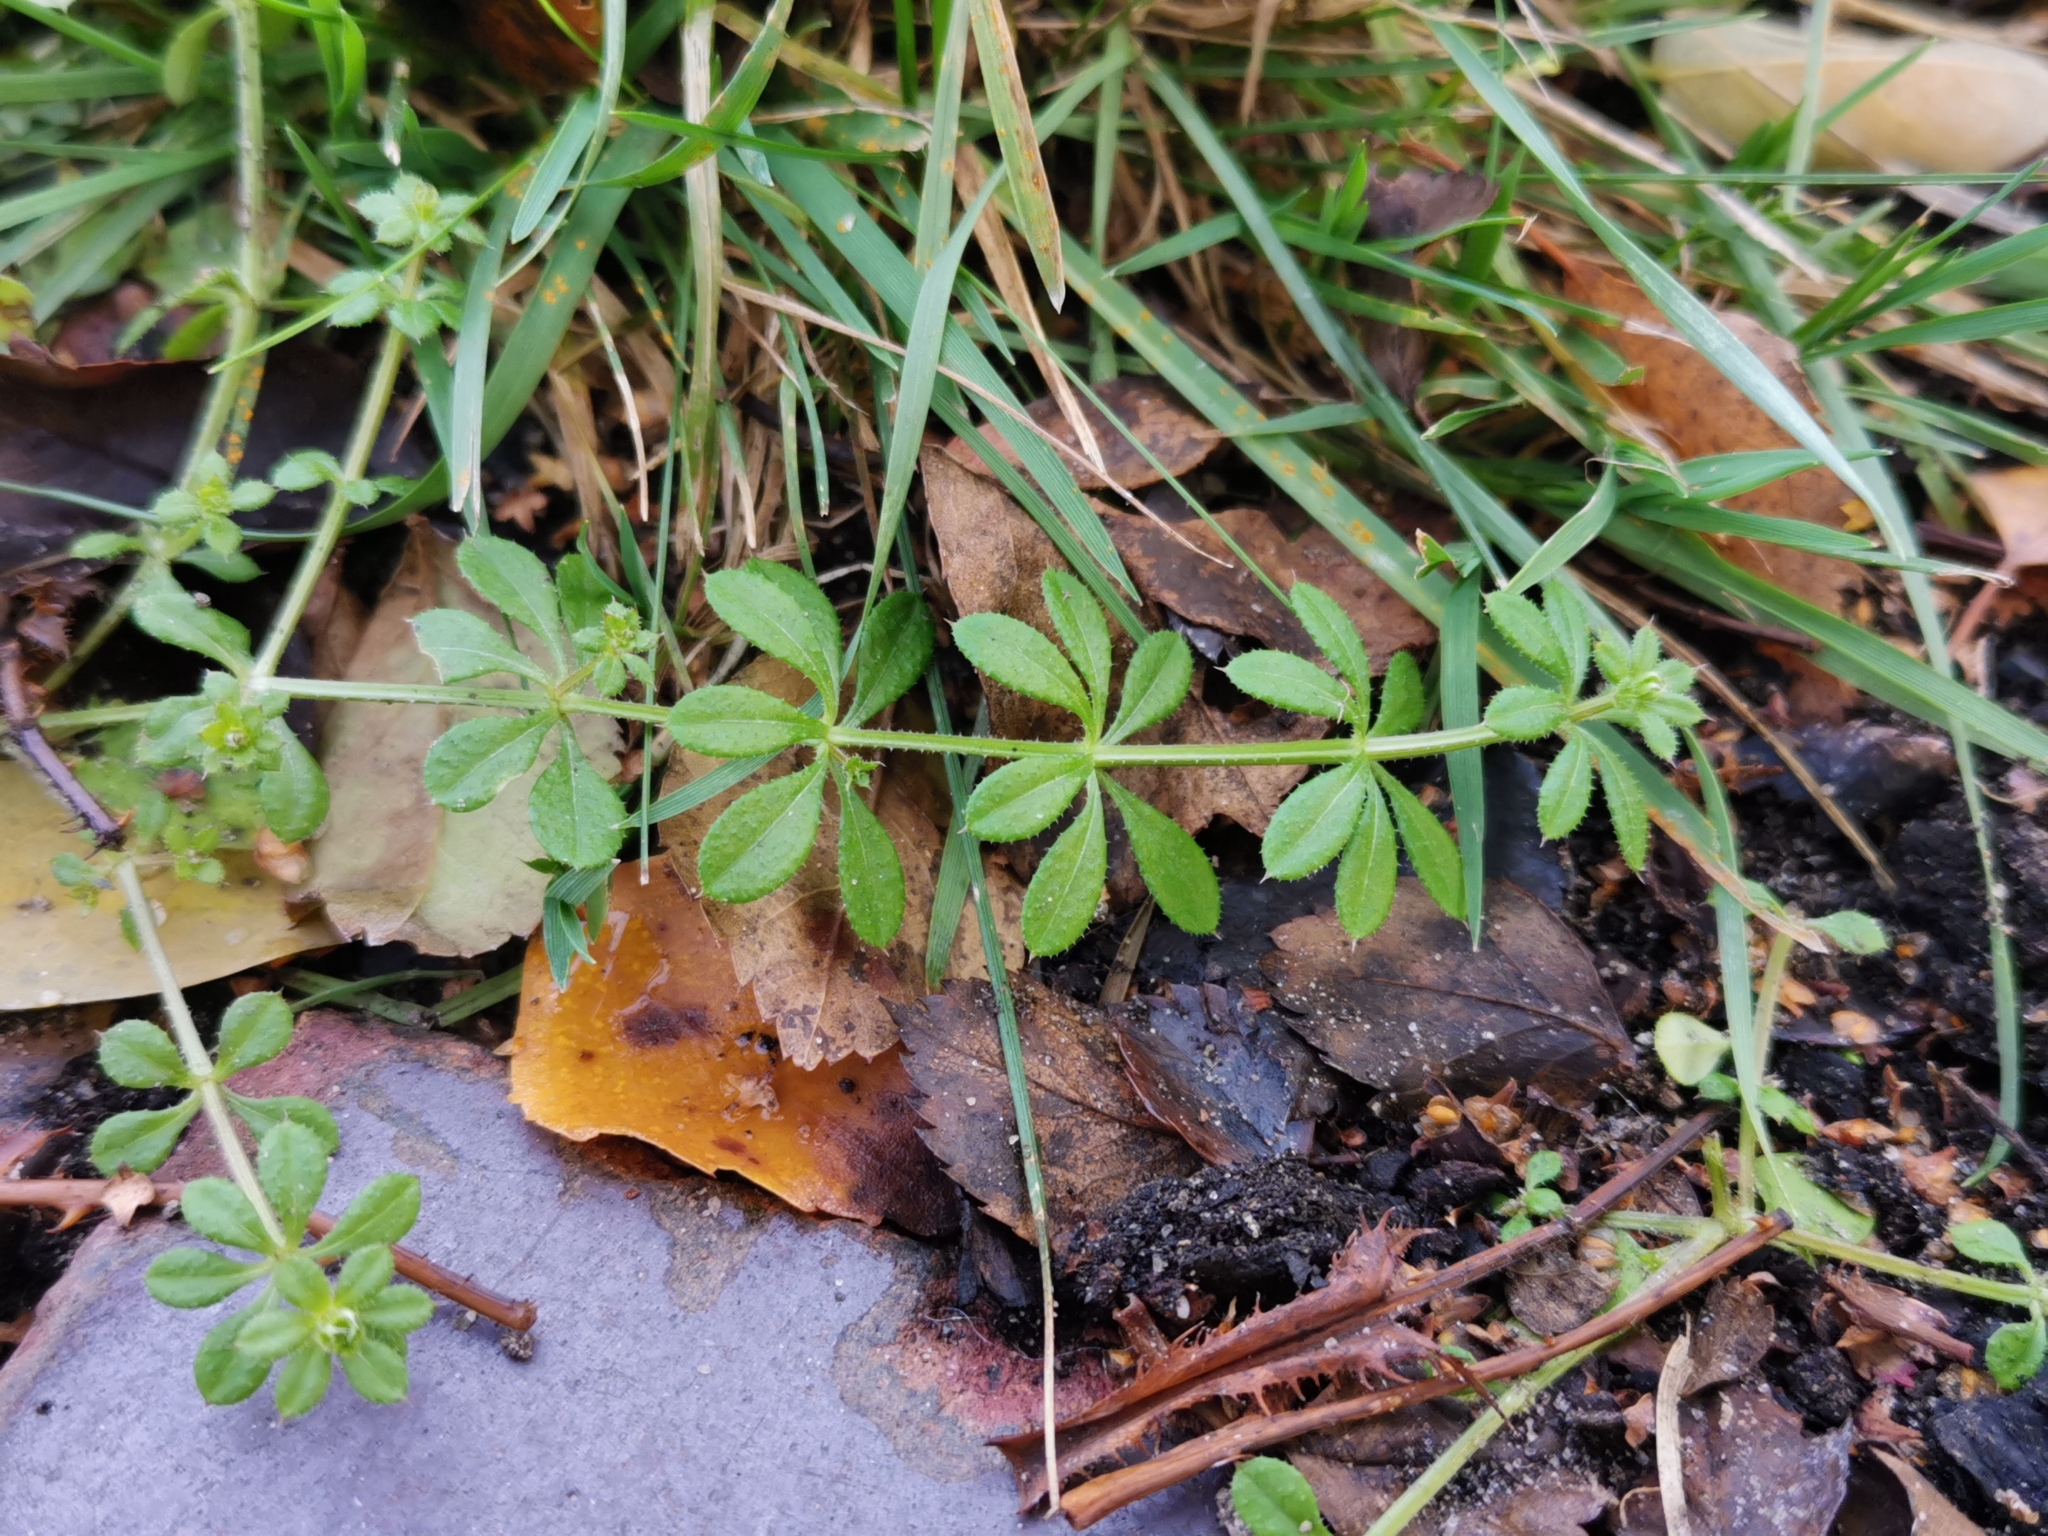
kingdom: Plantae
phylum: Tracheophyta
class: Magnoliopsida
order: Gentianales
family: Rubiaceae
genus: Galium
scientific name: Galium aparine
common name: Cleavers
